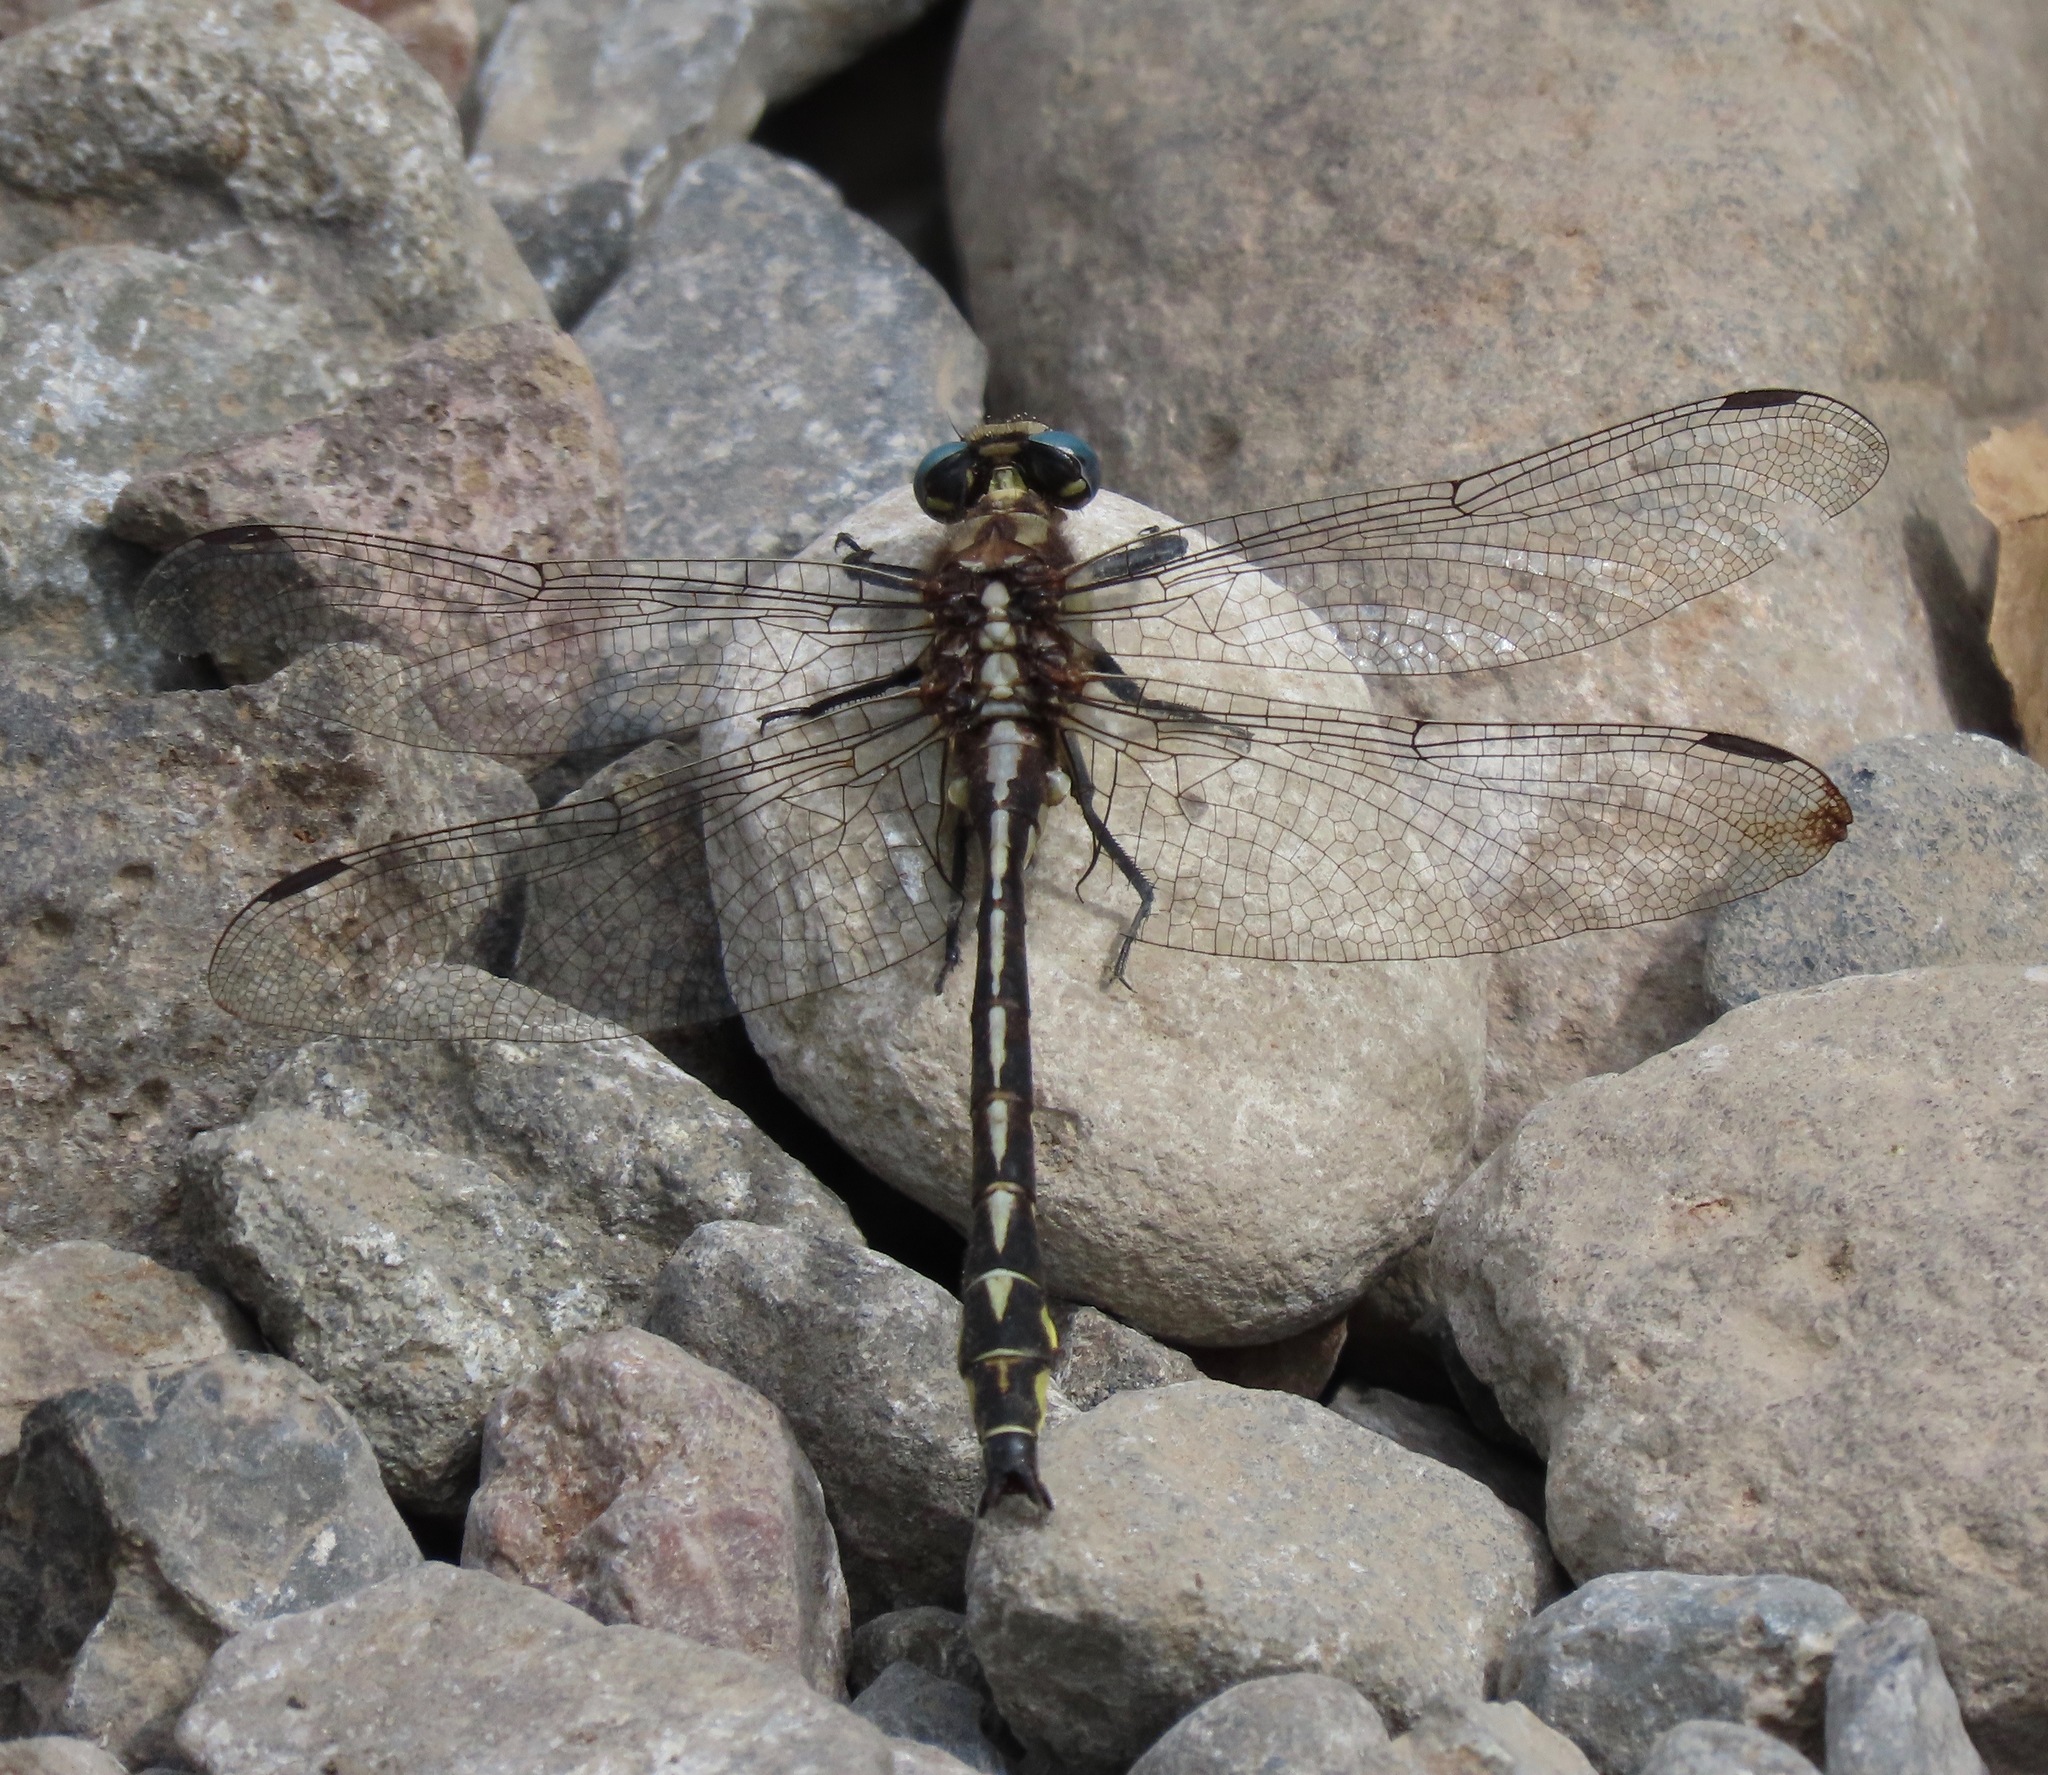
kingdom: Animalia
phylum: Arthropoda
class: Insecta
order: Odonata
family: Gomphidae
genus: Phanogomphus
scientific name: Phanogomphus kurilis
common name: Pacific clubtail
